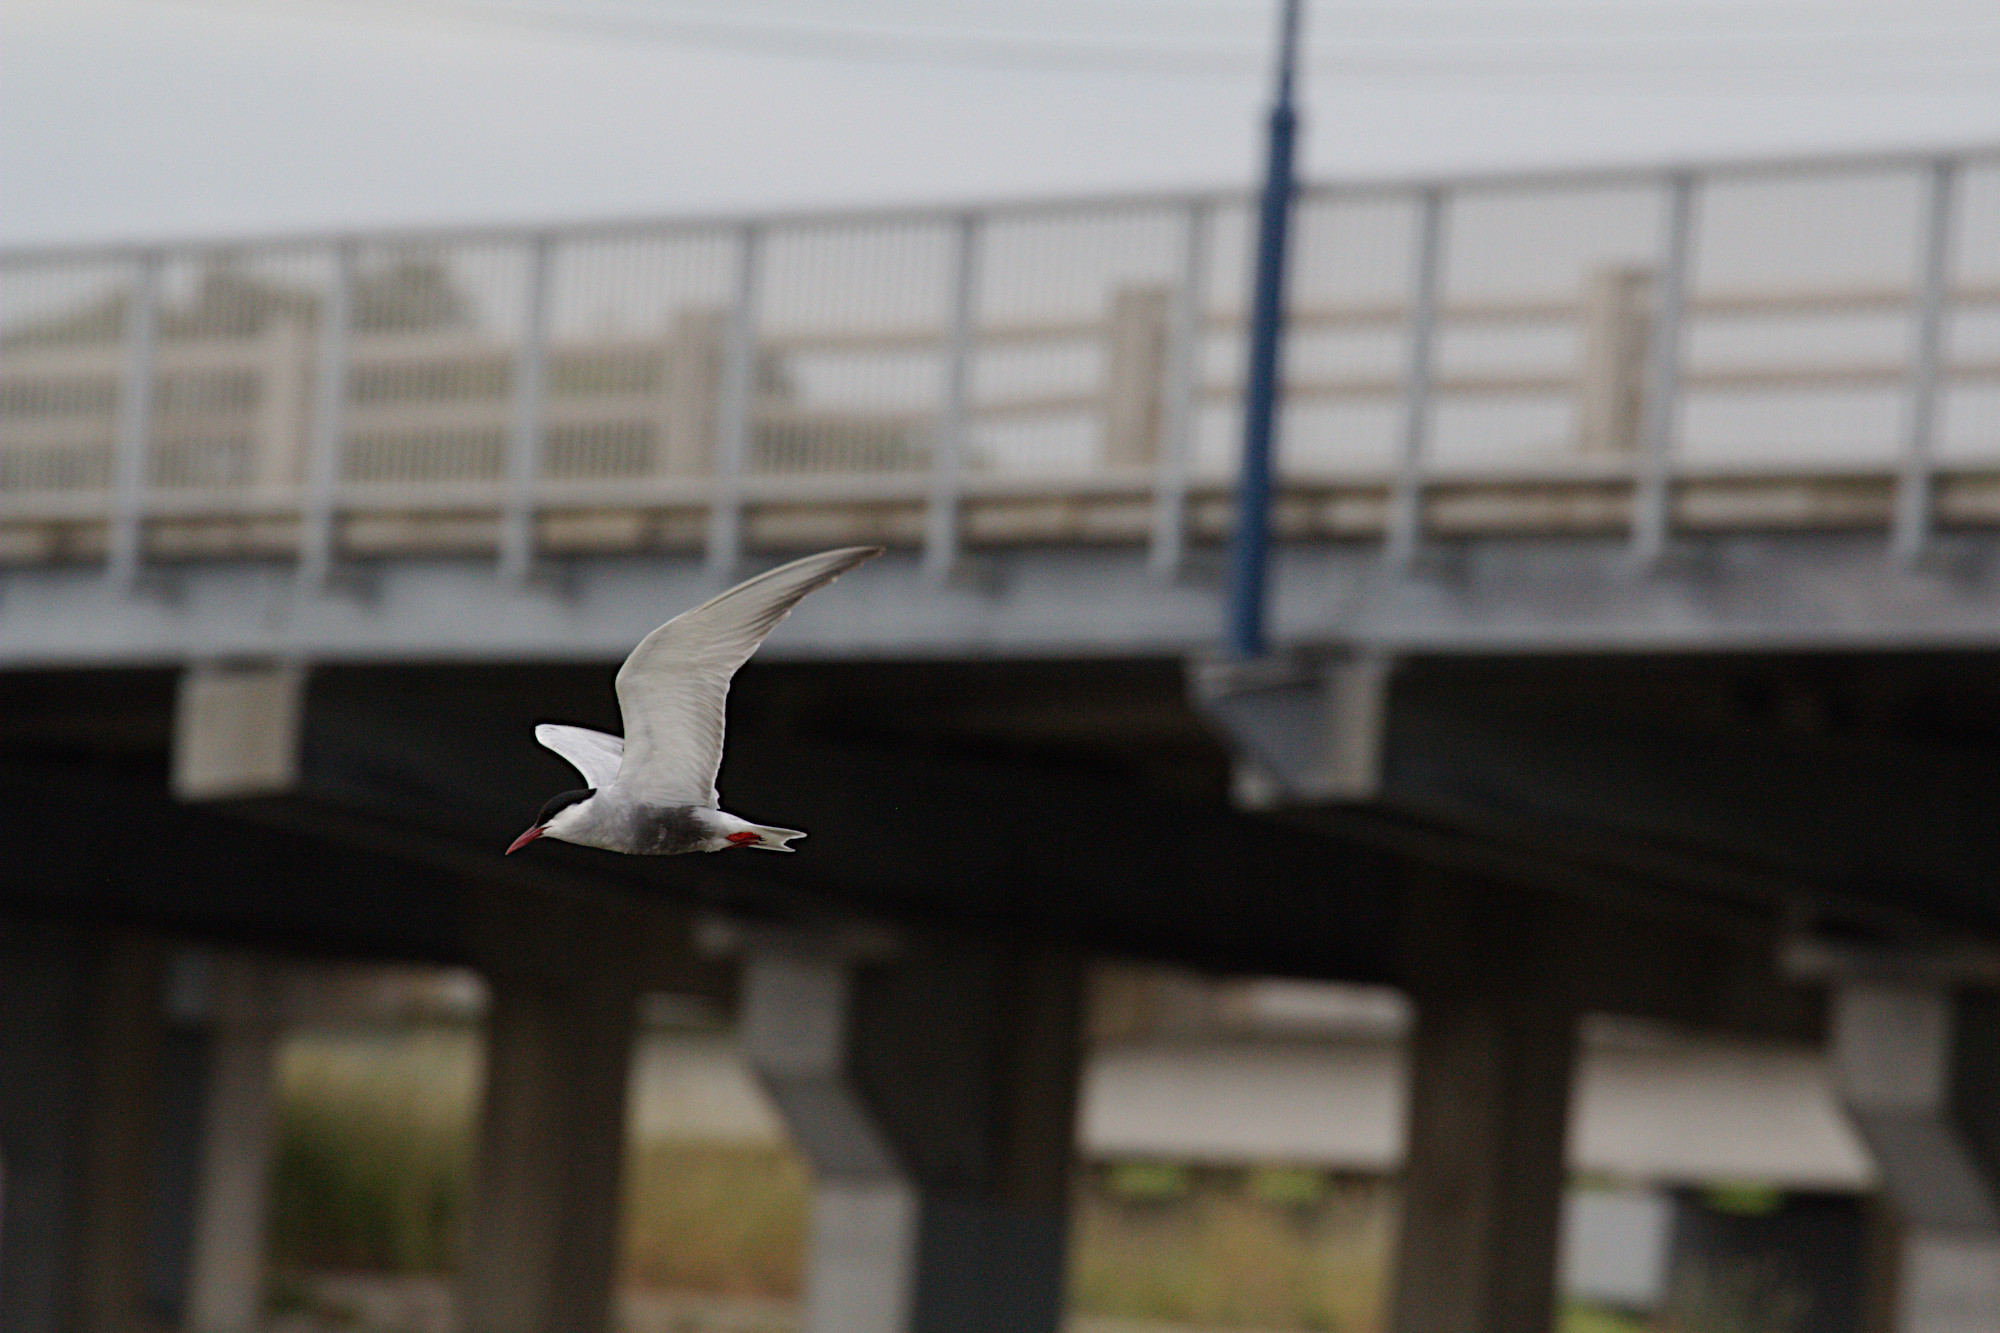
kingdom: Animalia
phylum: Chordata
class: Aves
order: Charadriiformes
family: Laridae
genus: Chlidonias
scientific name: Chlidonias hybrida
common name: Whiskered tern
